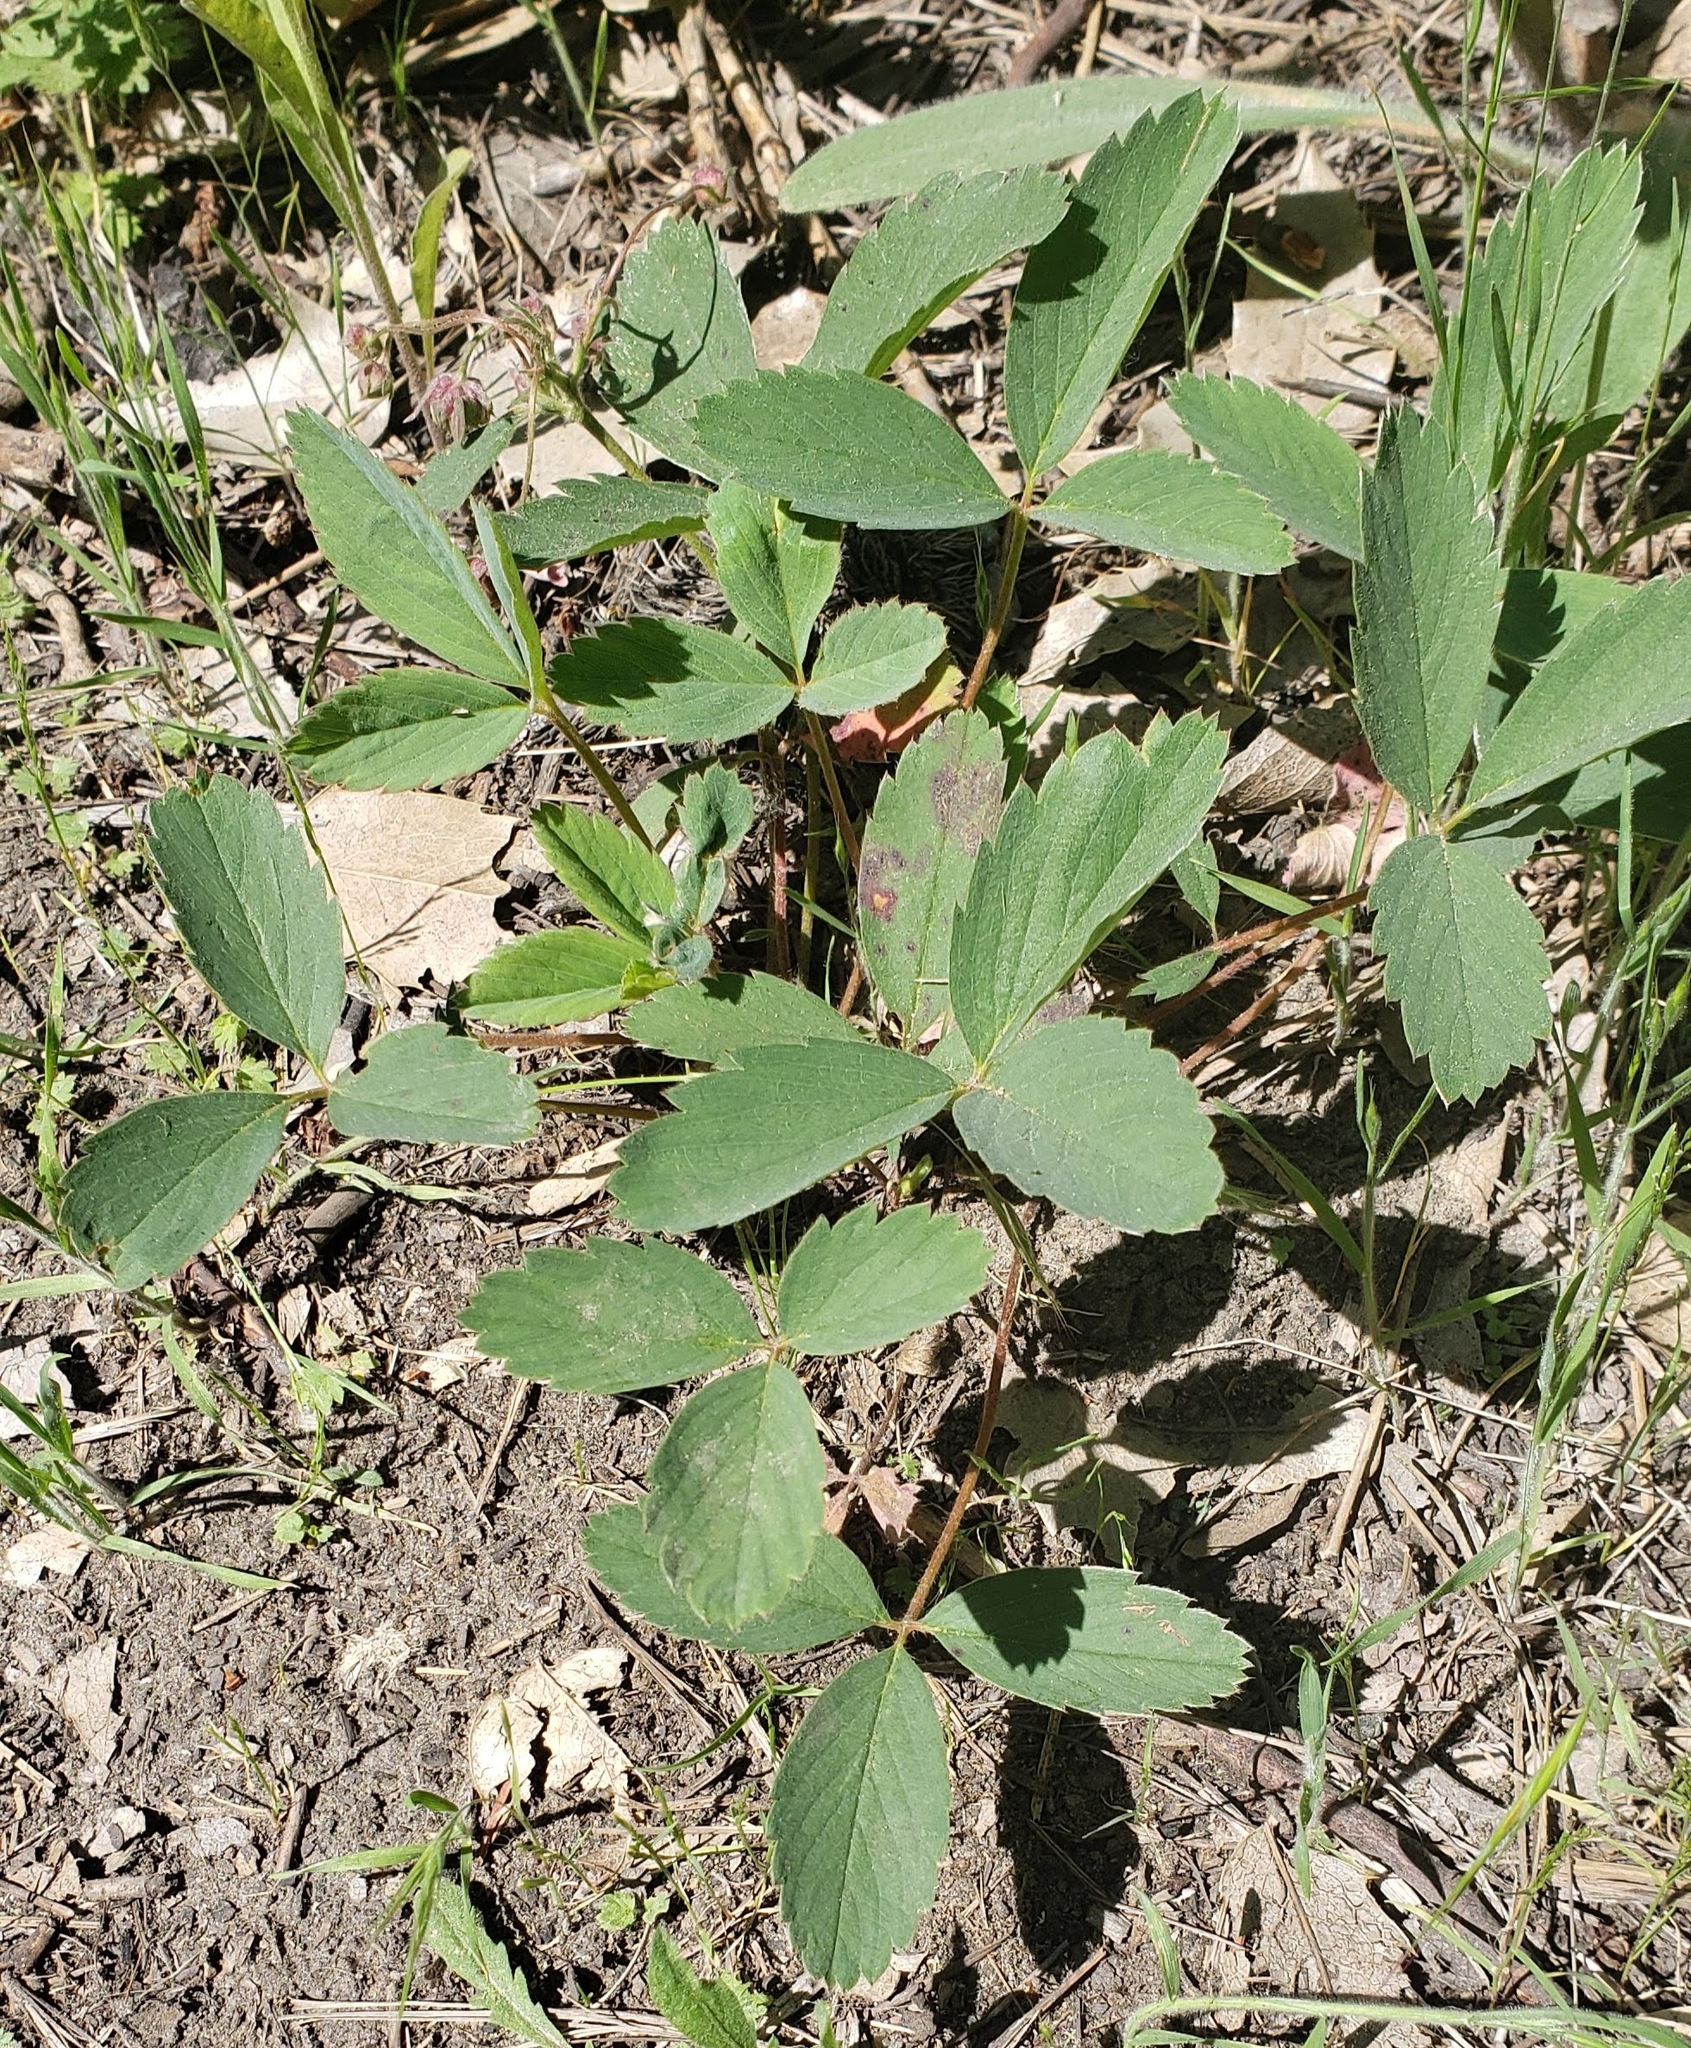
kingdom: Plantae
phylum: Tracheophyta
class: Magnoliopsida
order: Rosales
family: Rosaceae
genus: Fragaria
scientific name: Fragaria virginiana
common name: Thickleaved wild strawberry
